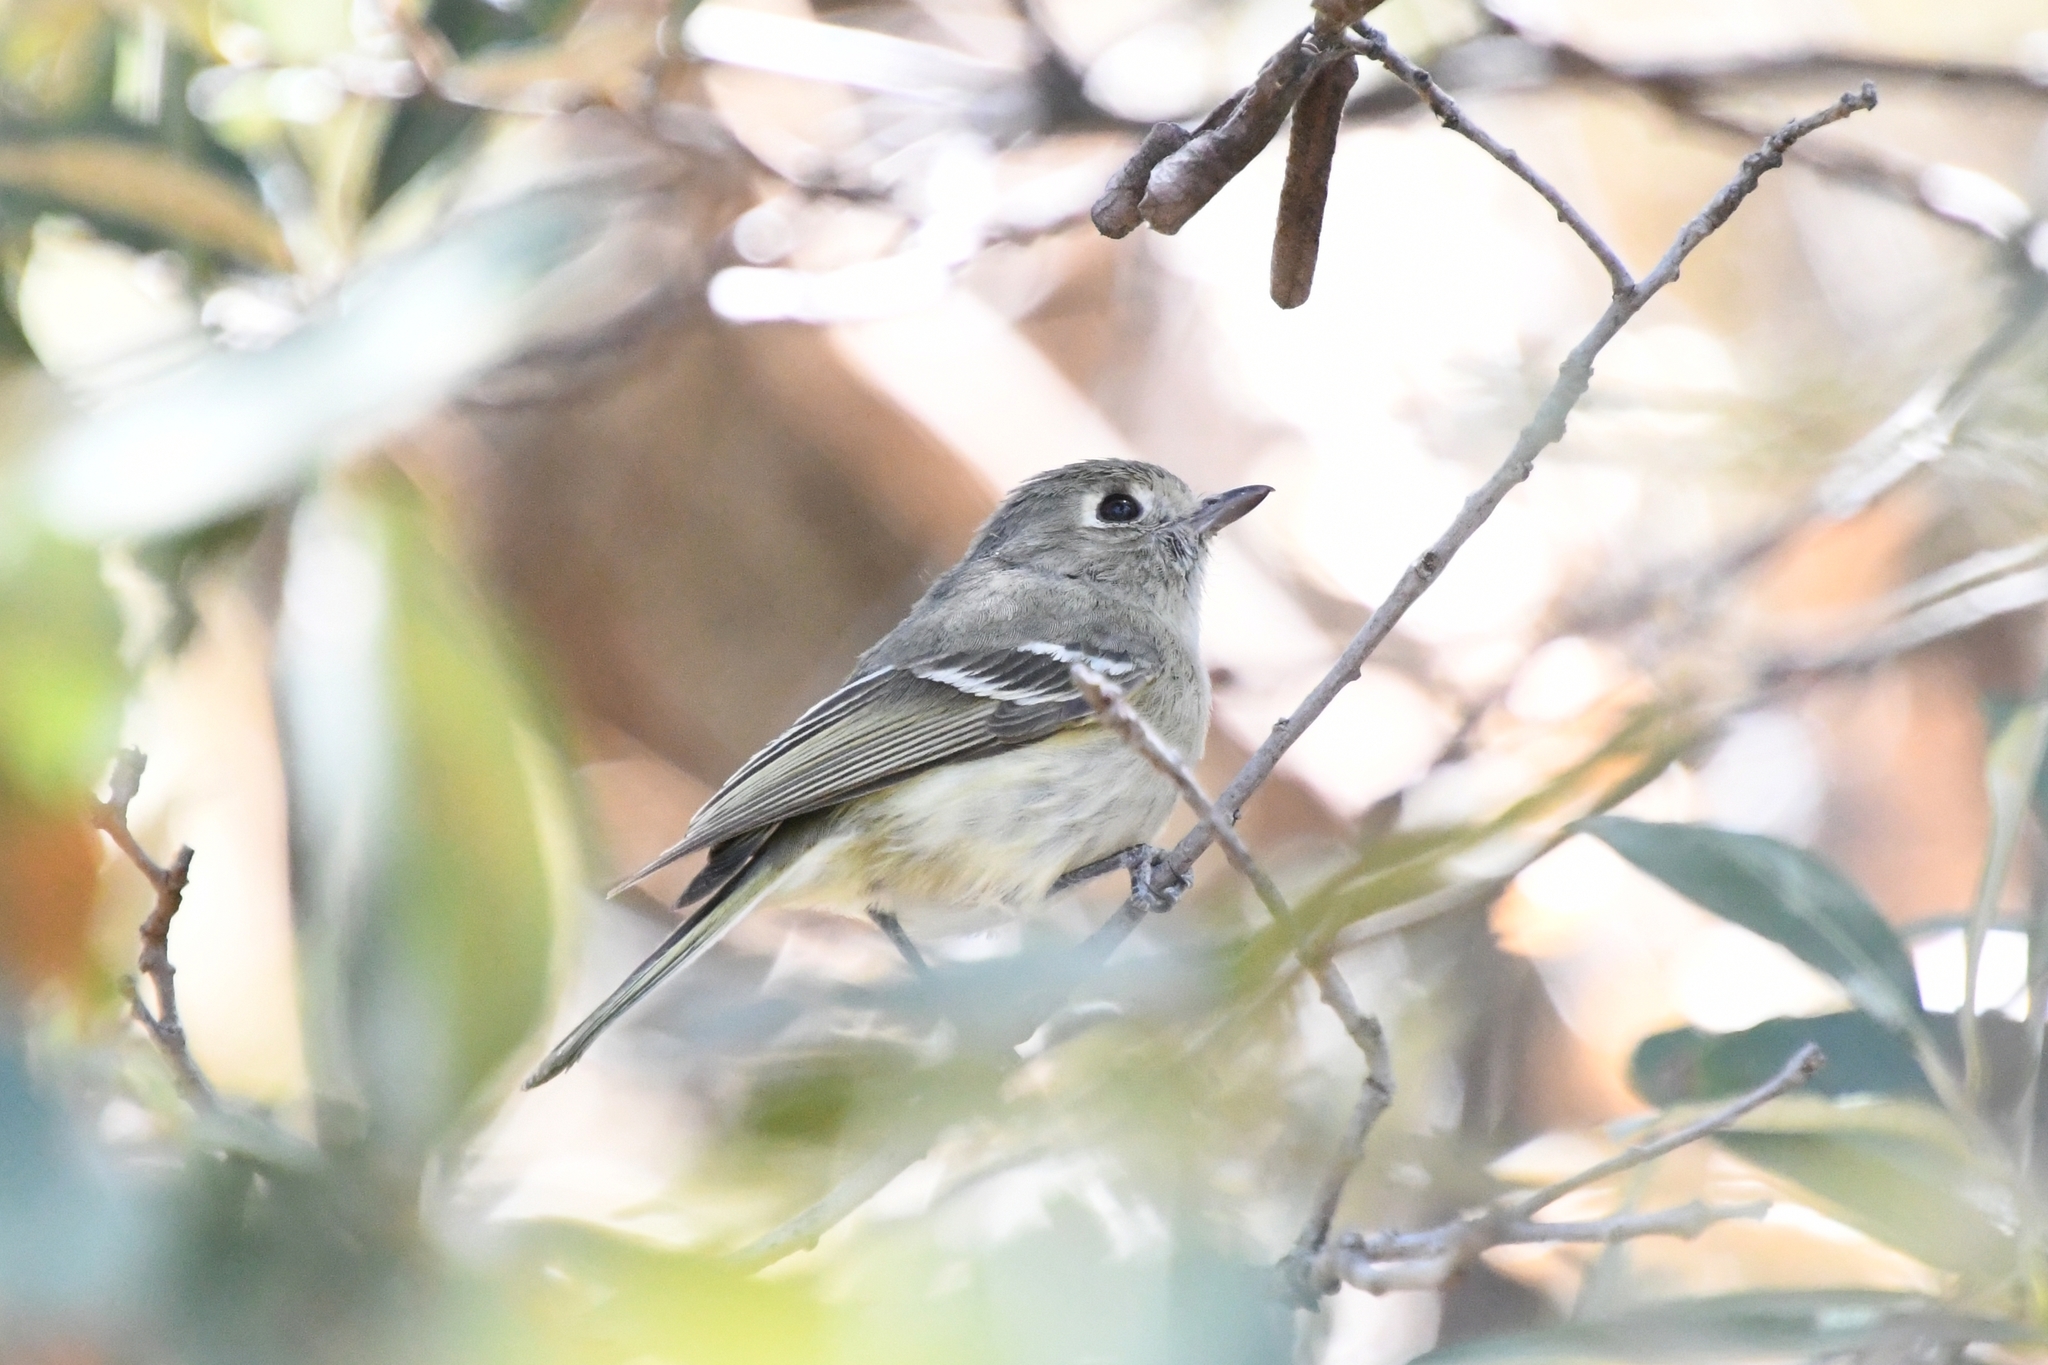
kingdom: Animalia
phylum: Chordata
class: Aves
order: Passeriformes
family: Vireonidae
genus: Vireo
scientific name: Vireo huttoni
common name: Hutton's vireo
